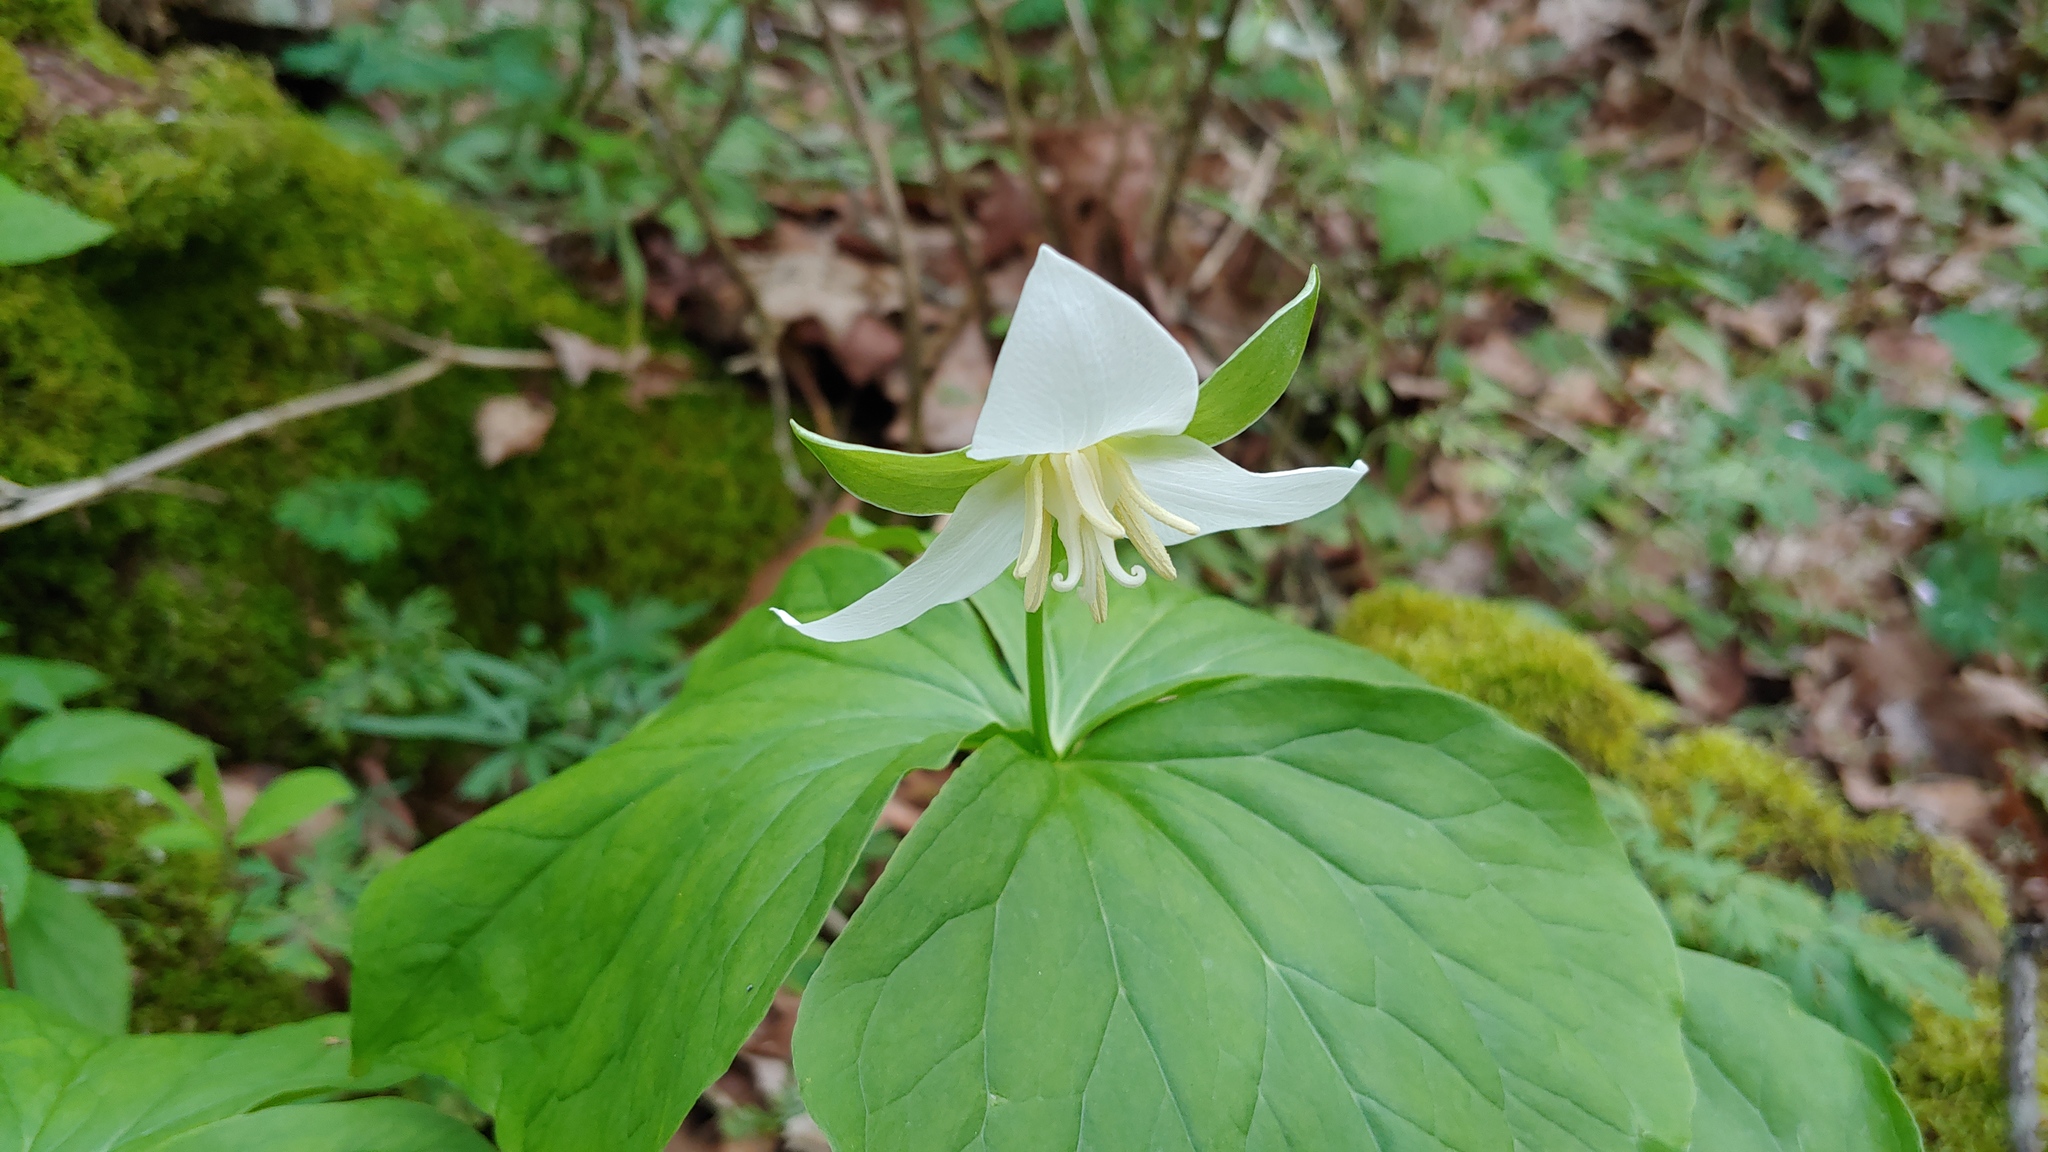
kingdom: Plantae
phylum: Tracheophyta
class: Liliopsida
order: Liliales
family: Melanthiaceae
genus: Trillium
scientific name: Trillium flexipes
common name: Drooping trillium
